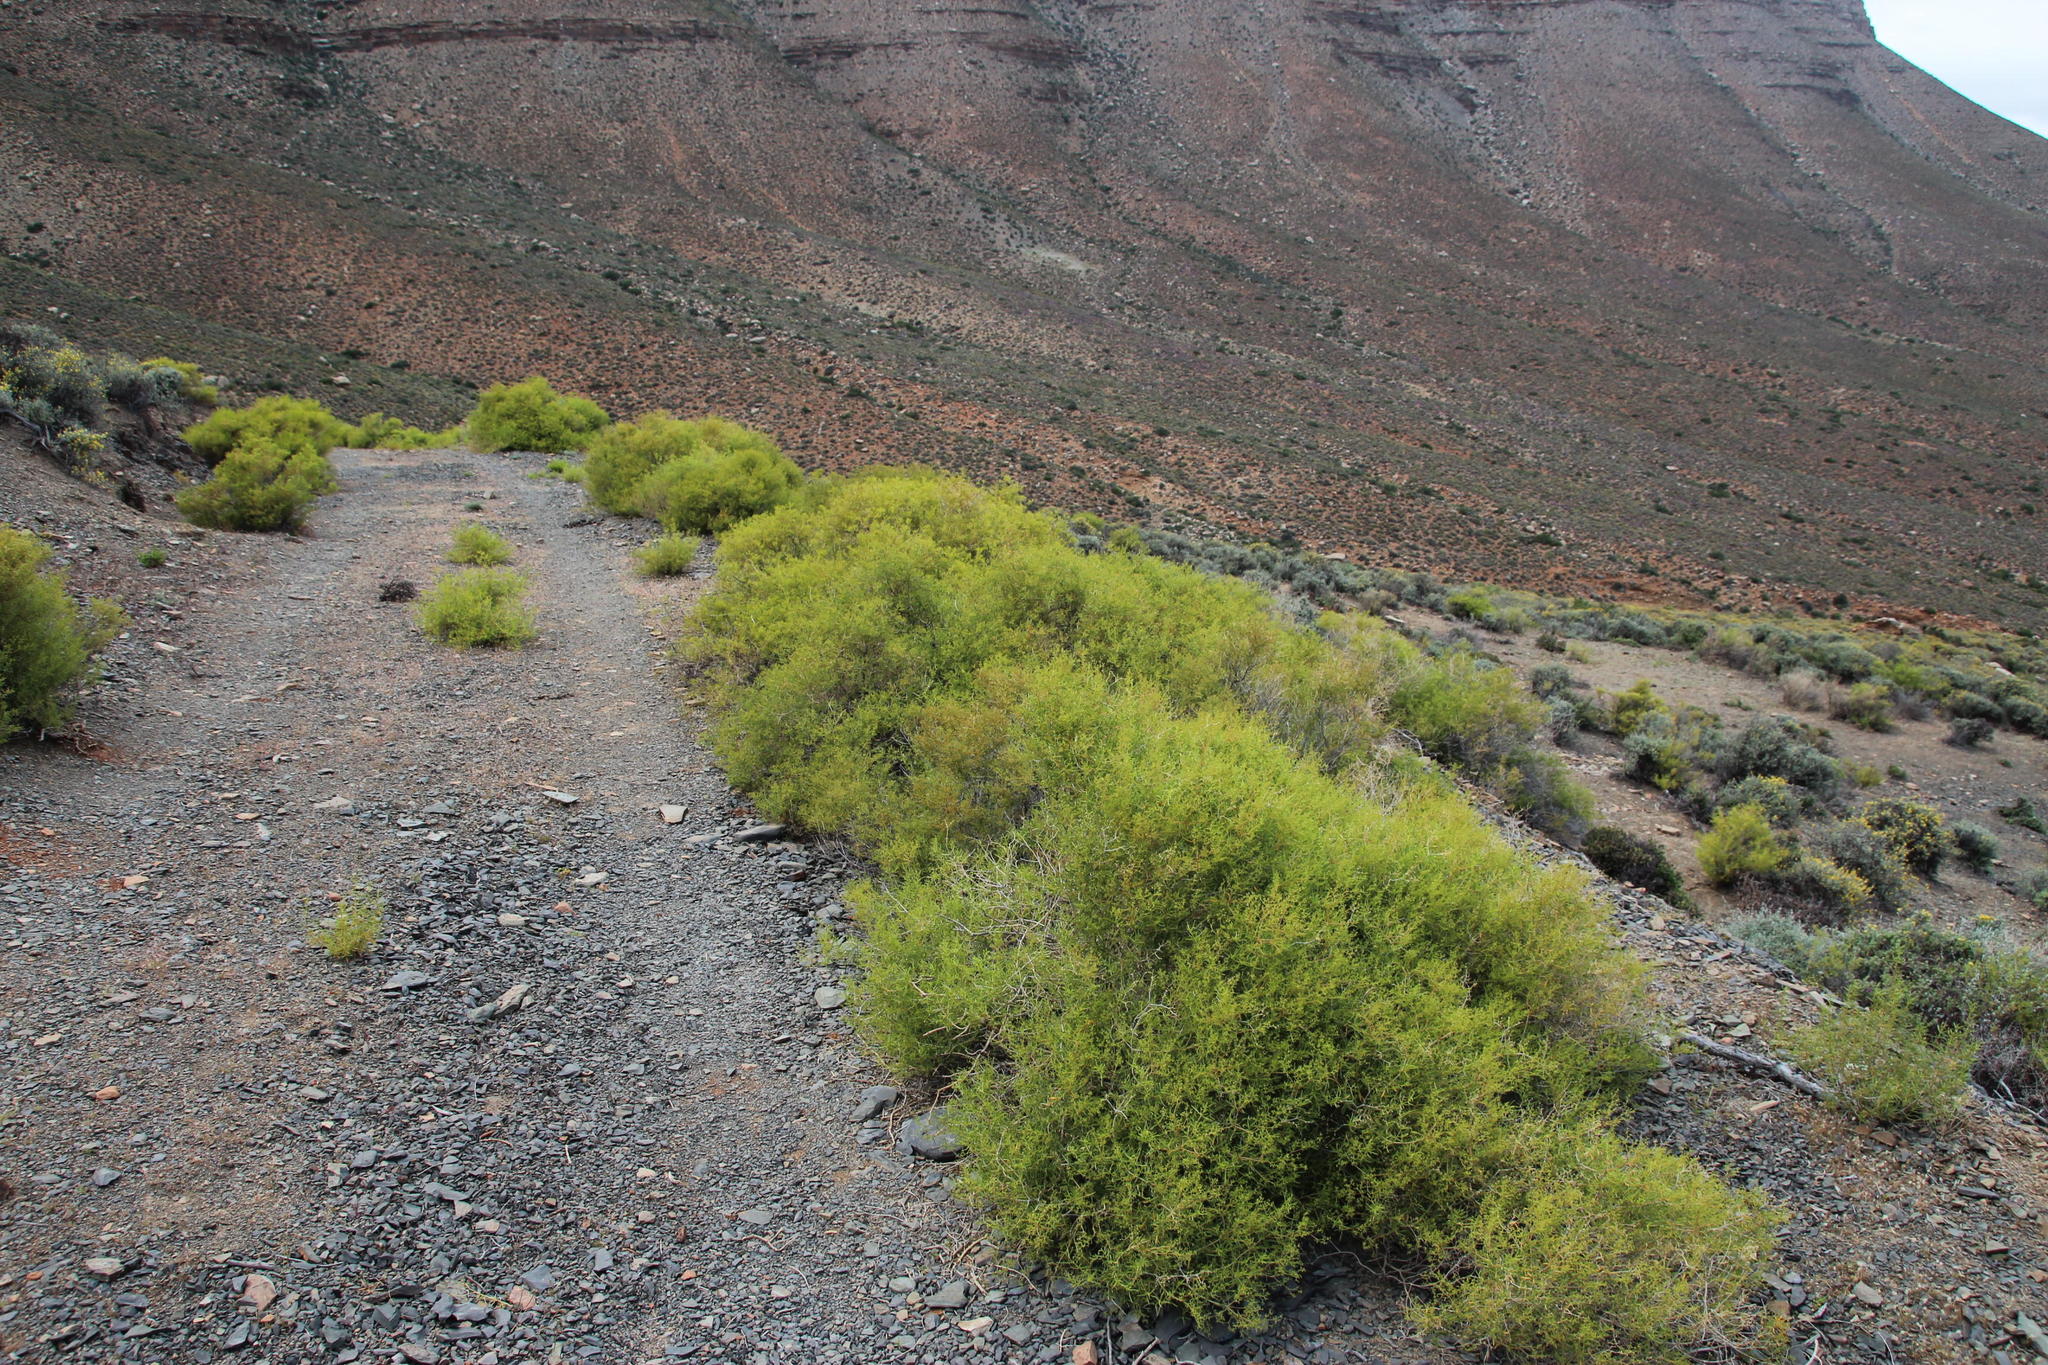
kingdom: Plantae
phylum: Tracheophyta
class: Magnoliopsida
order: Caryophyllales
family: Aizoaceae
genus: Aizoon
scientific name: Aizoon africanum
